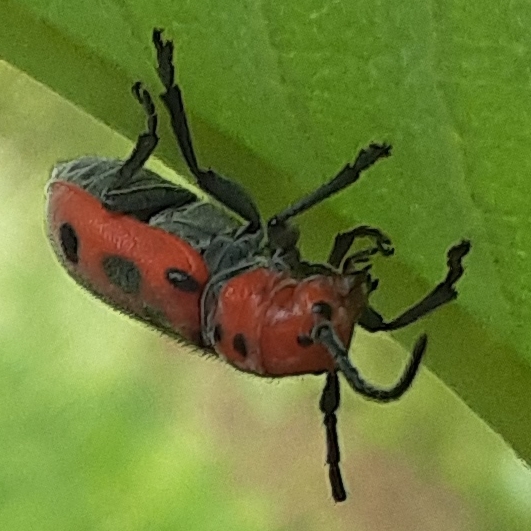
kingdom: Animalia
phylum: Arthropoda
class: Insecta
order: Coleoptera
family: Cerambycidae
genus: Tetraopes
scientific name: Tetraopes tetrophthalmus
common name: Red milkweed beetle
